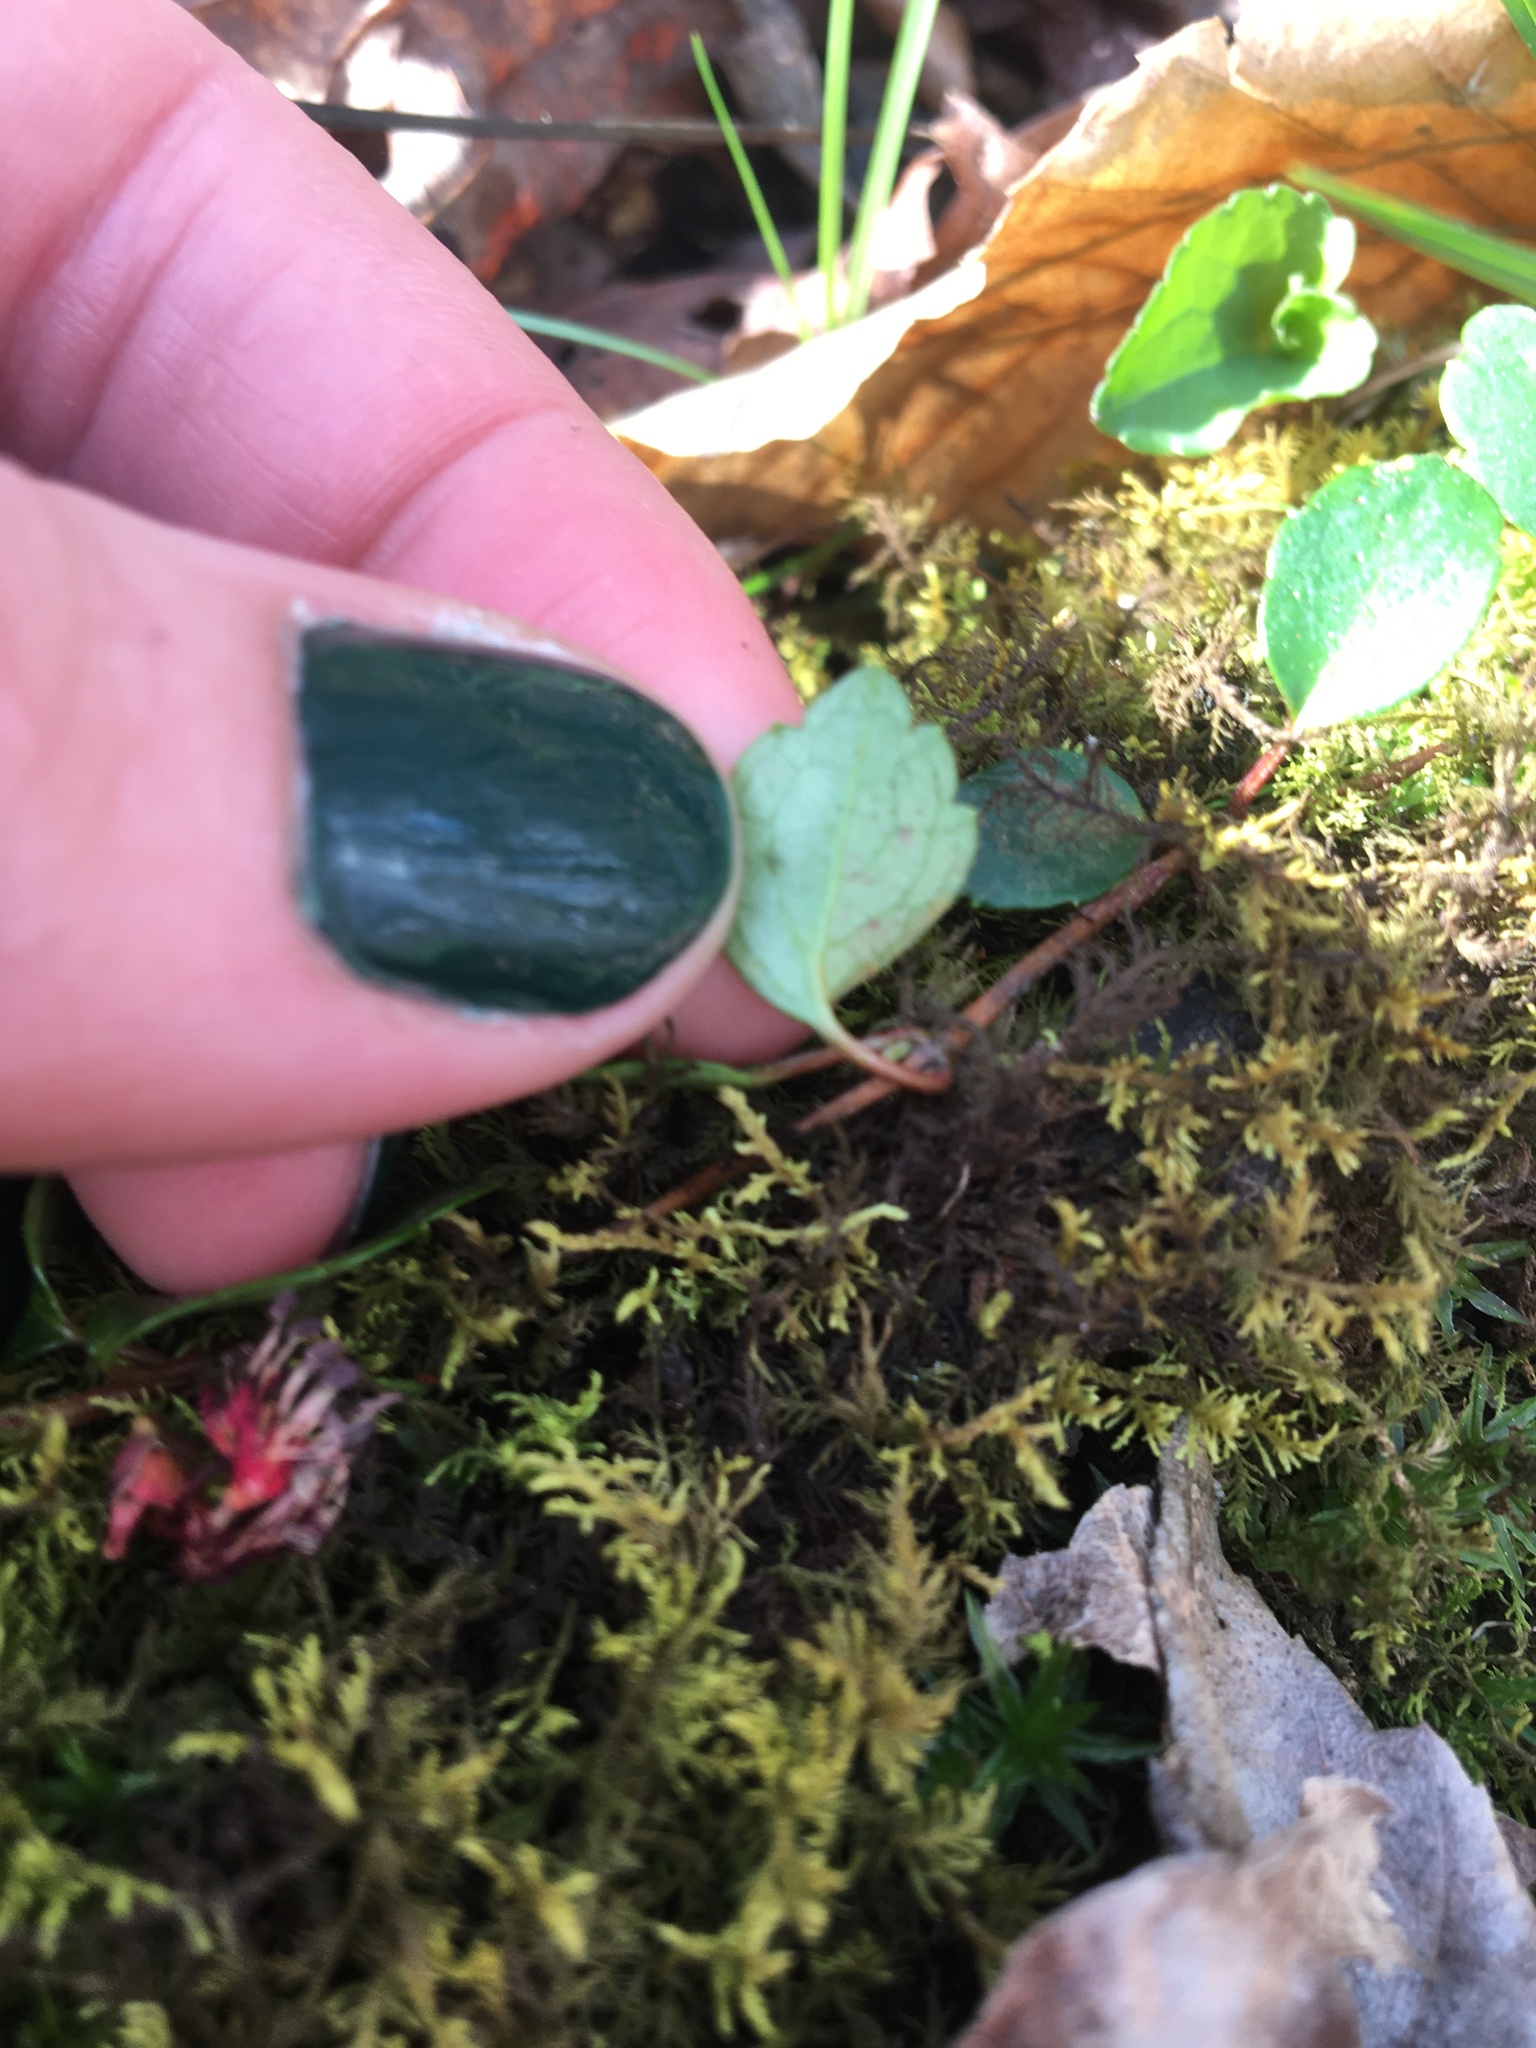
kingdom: Plantae
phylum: Tracheophyta
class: Magnoliopsida
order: Cornales
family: Hydrangeaceae
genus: Hydrangea
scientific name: Hydrangea barbara
